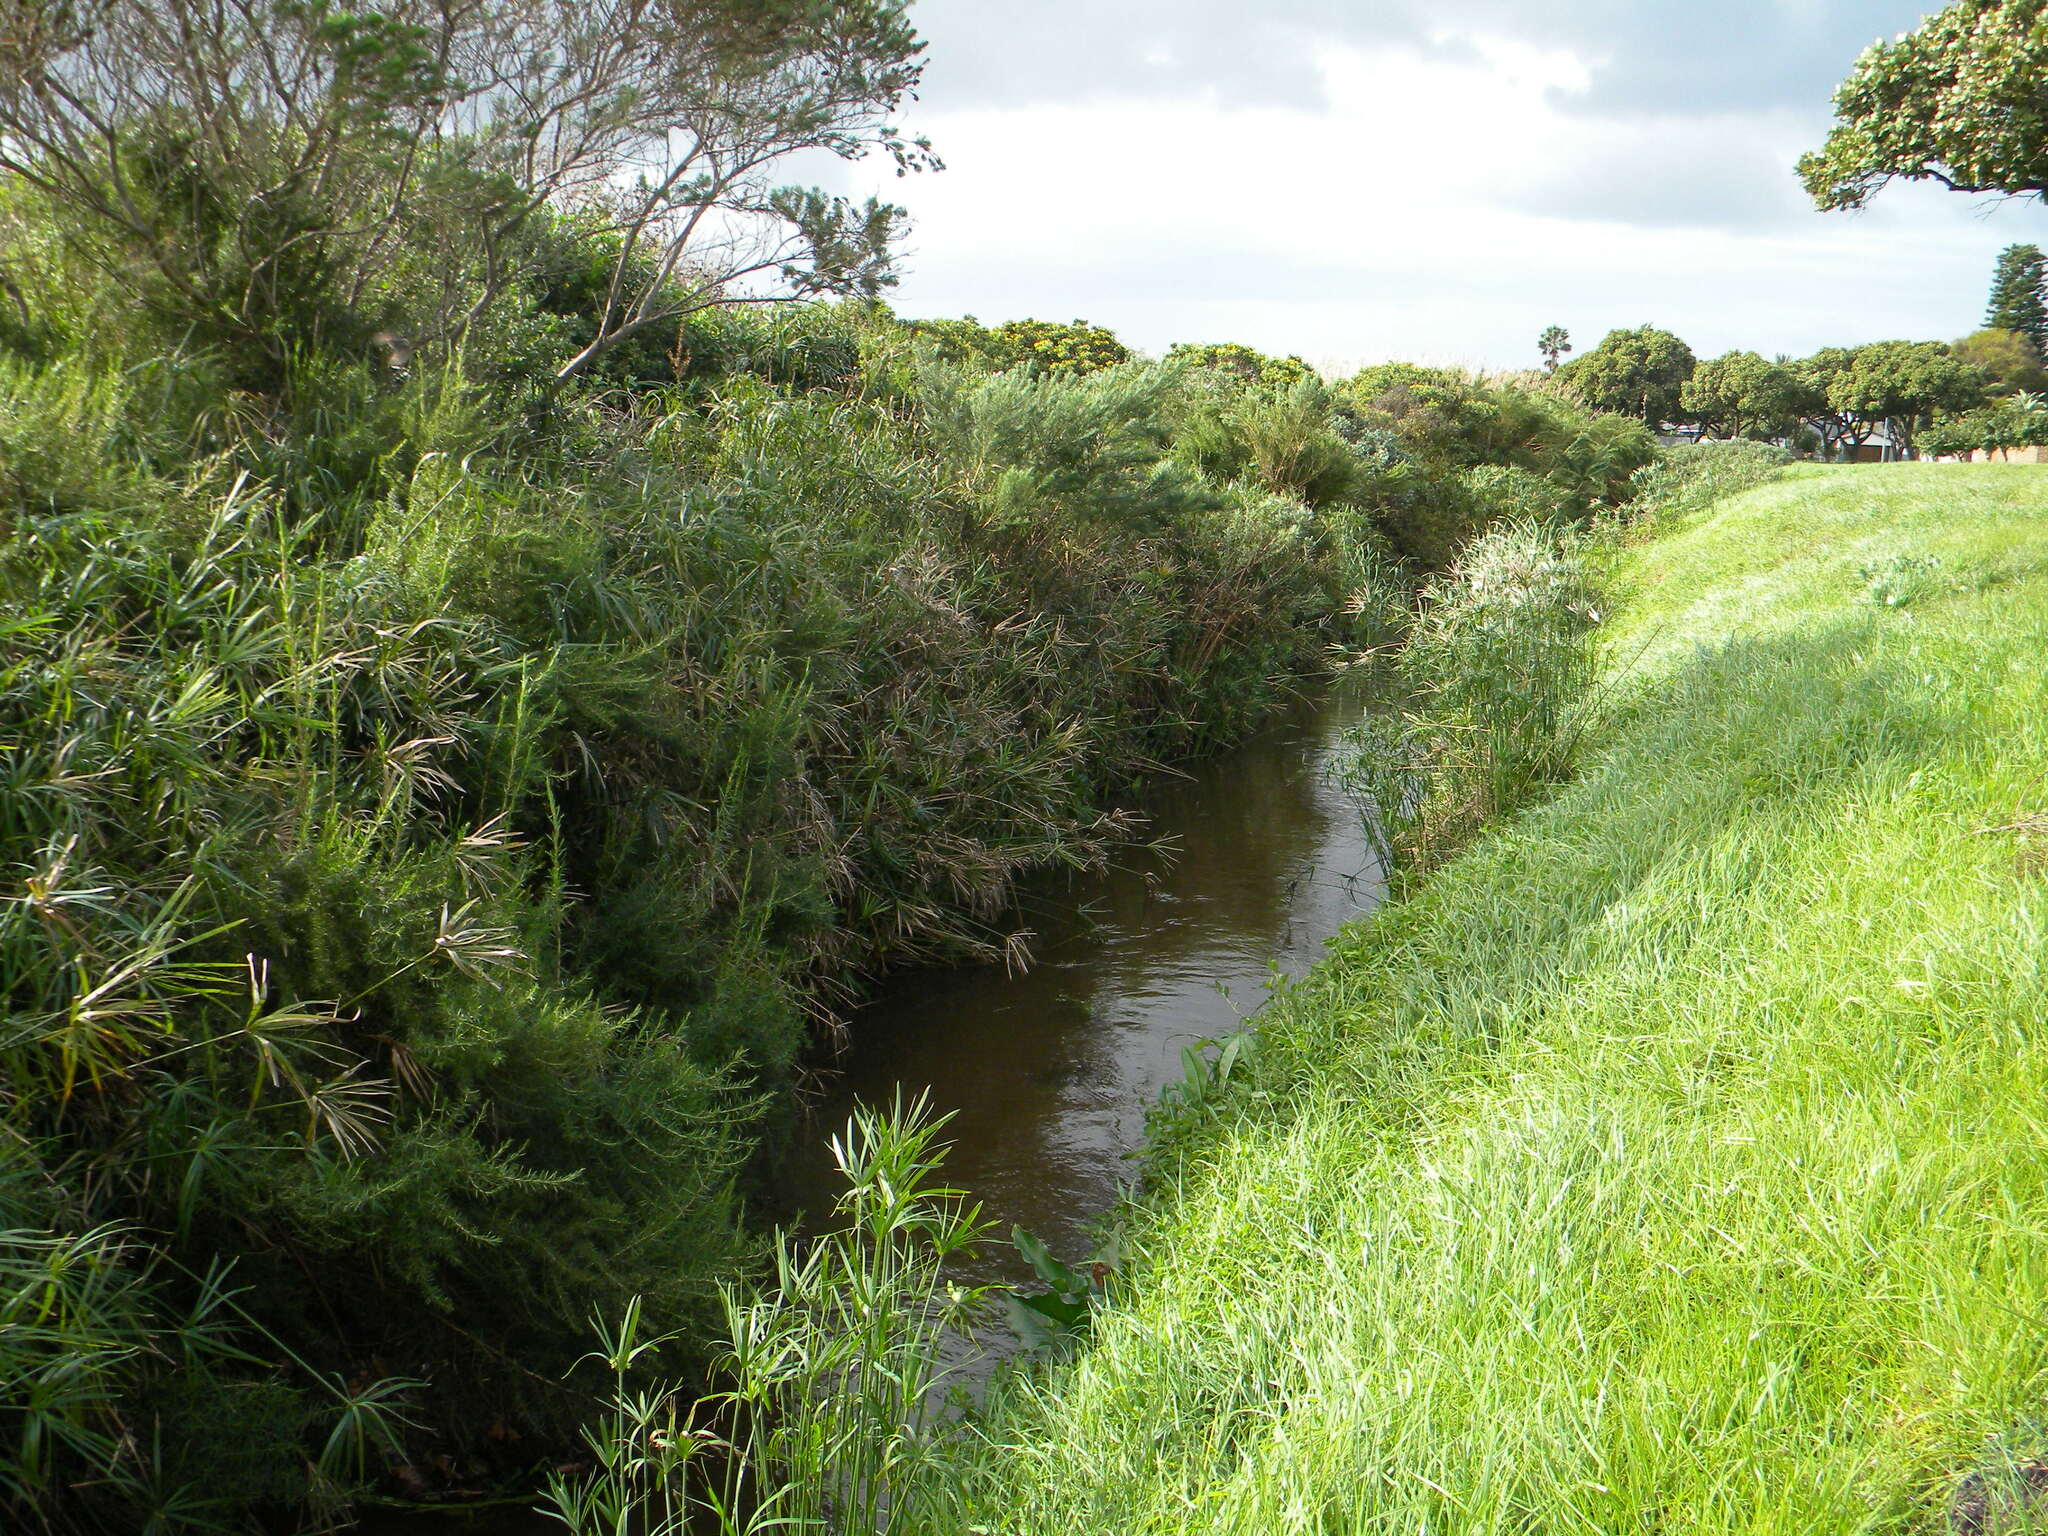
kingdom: Plantae
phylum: Tracheophyta
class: Liliopsida
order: Poales
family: Cyperaceae
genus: Cyperus
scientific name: Cyperus textilis
